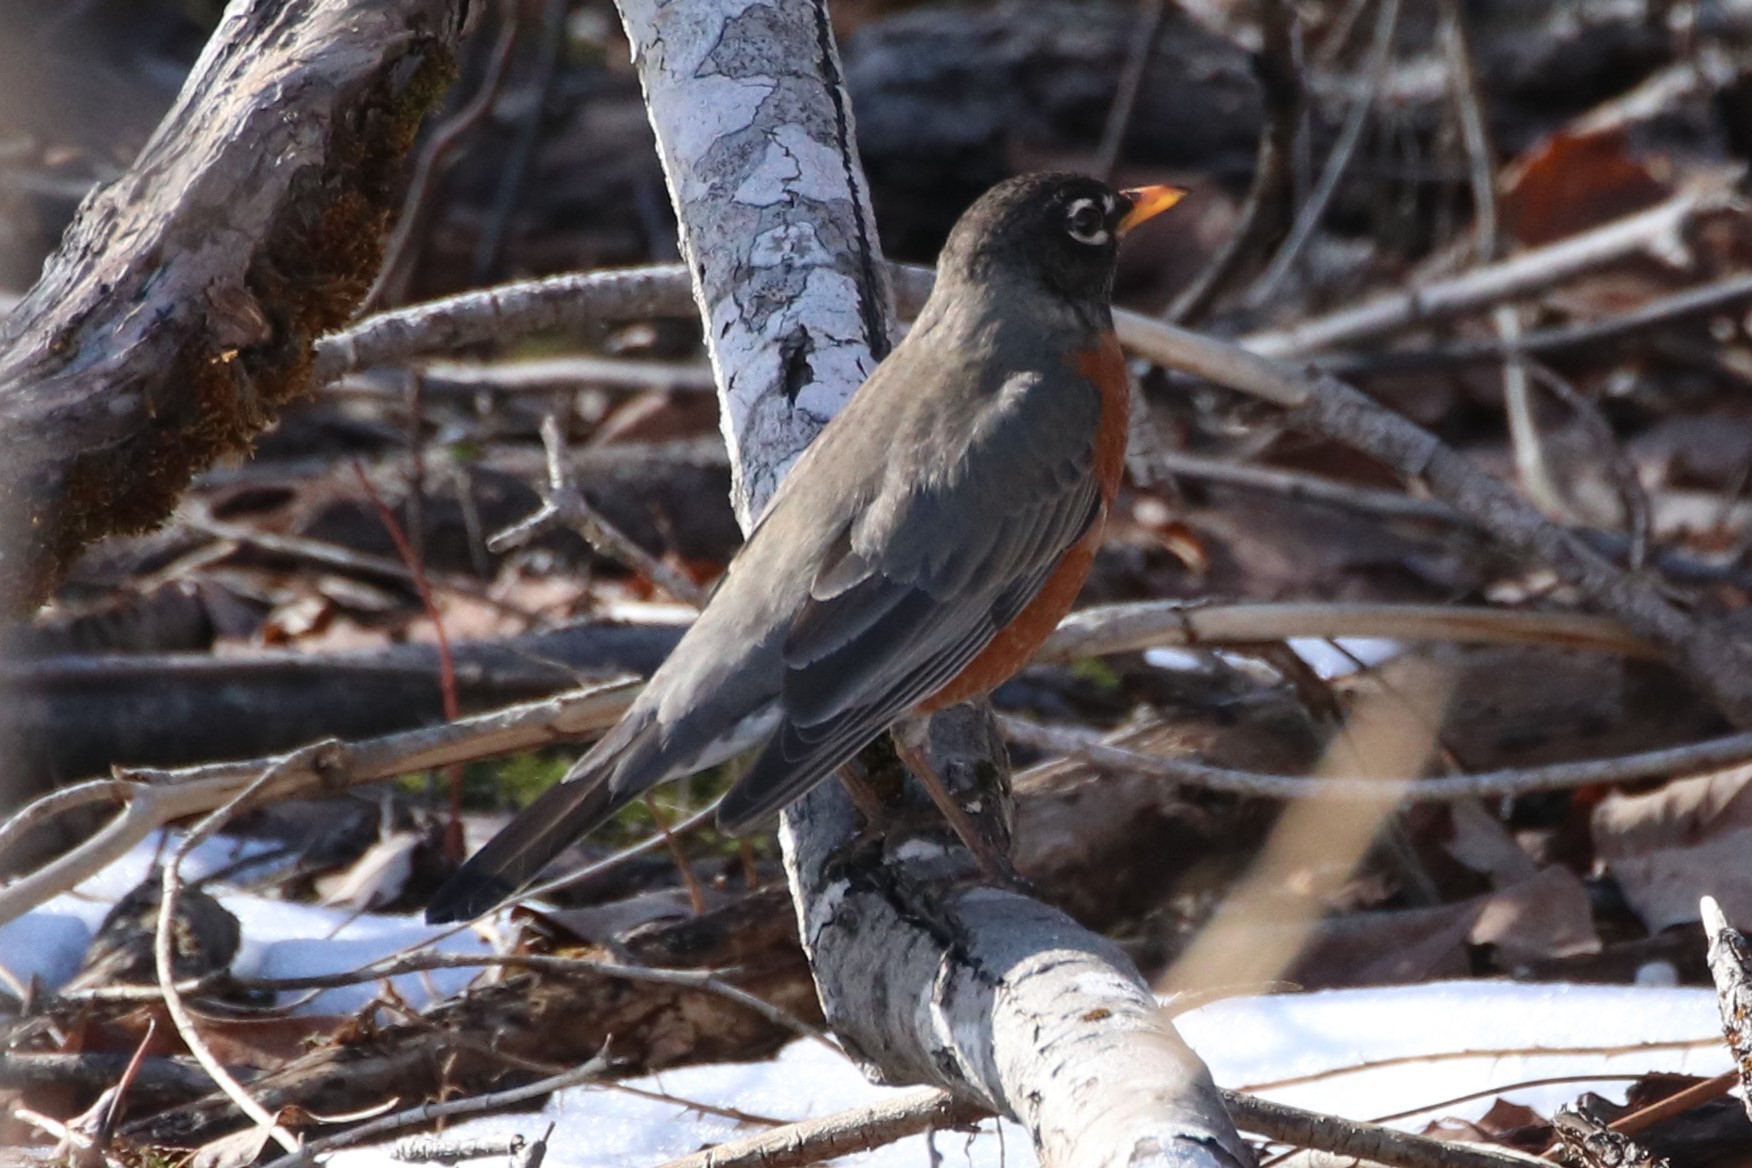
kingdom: Animalia
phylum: Chordata
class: Aves
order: Passeriformes
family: Turdidae
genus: Turdus
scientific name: Turdus migratorius
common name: American robin
